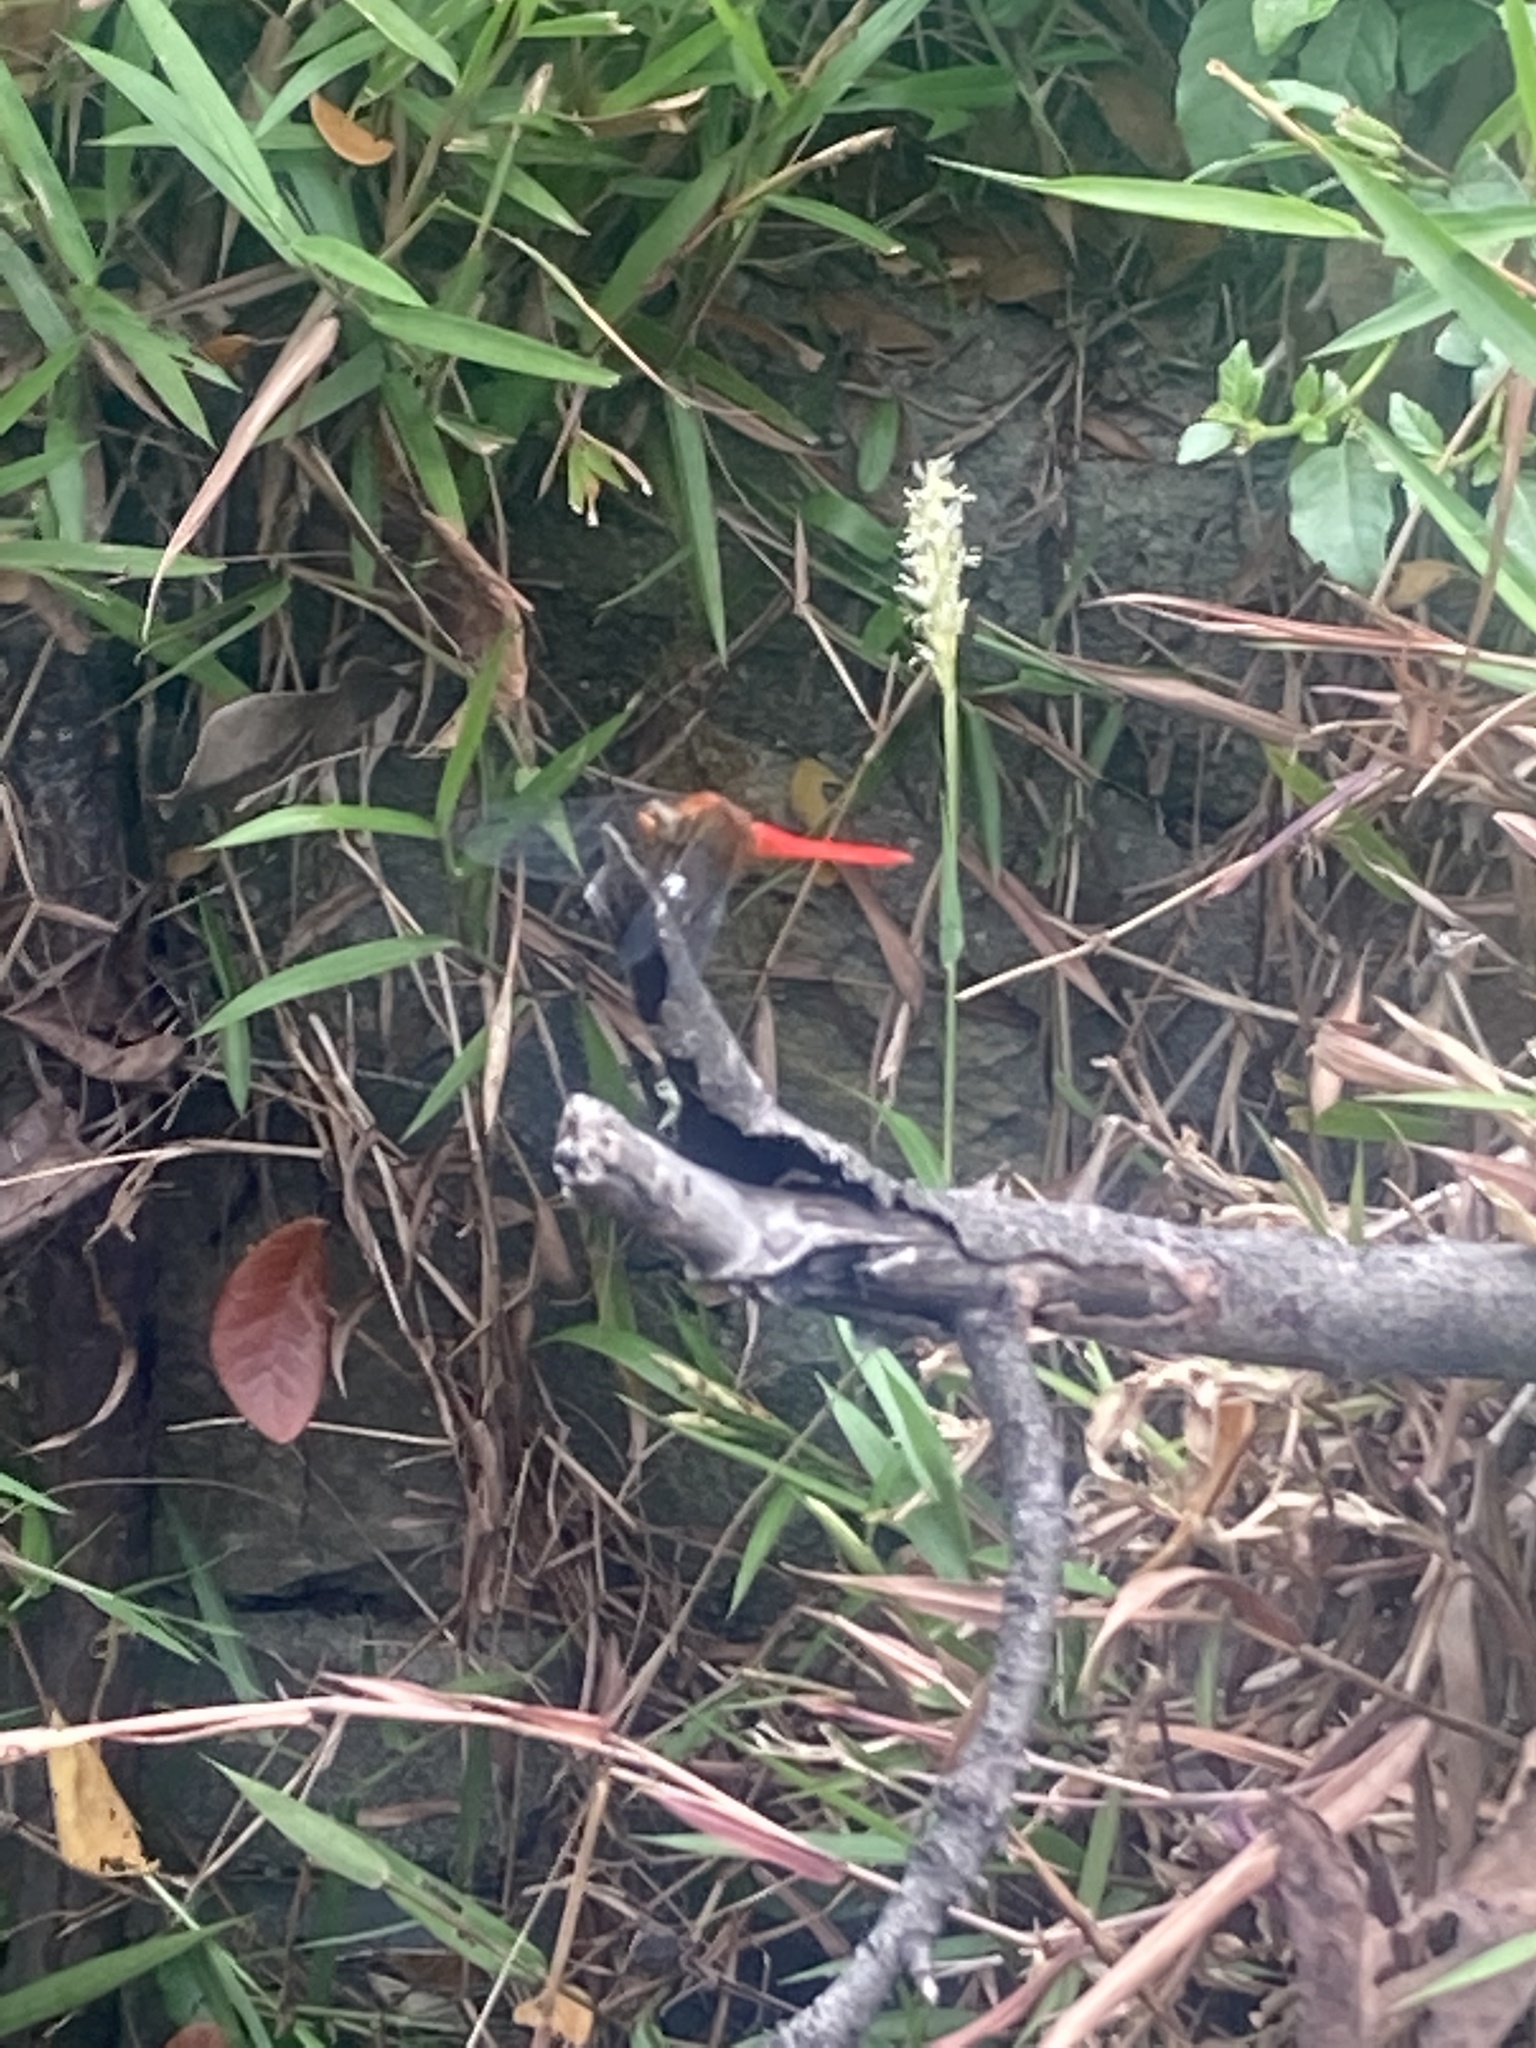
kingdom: Animalia
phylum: Arthropoda
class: Insecta
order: Odonata
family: Libellulidae
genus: Orthetrum
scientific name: Orthetrum testaceum
